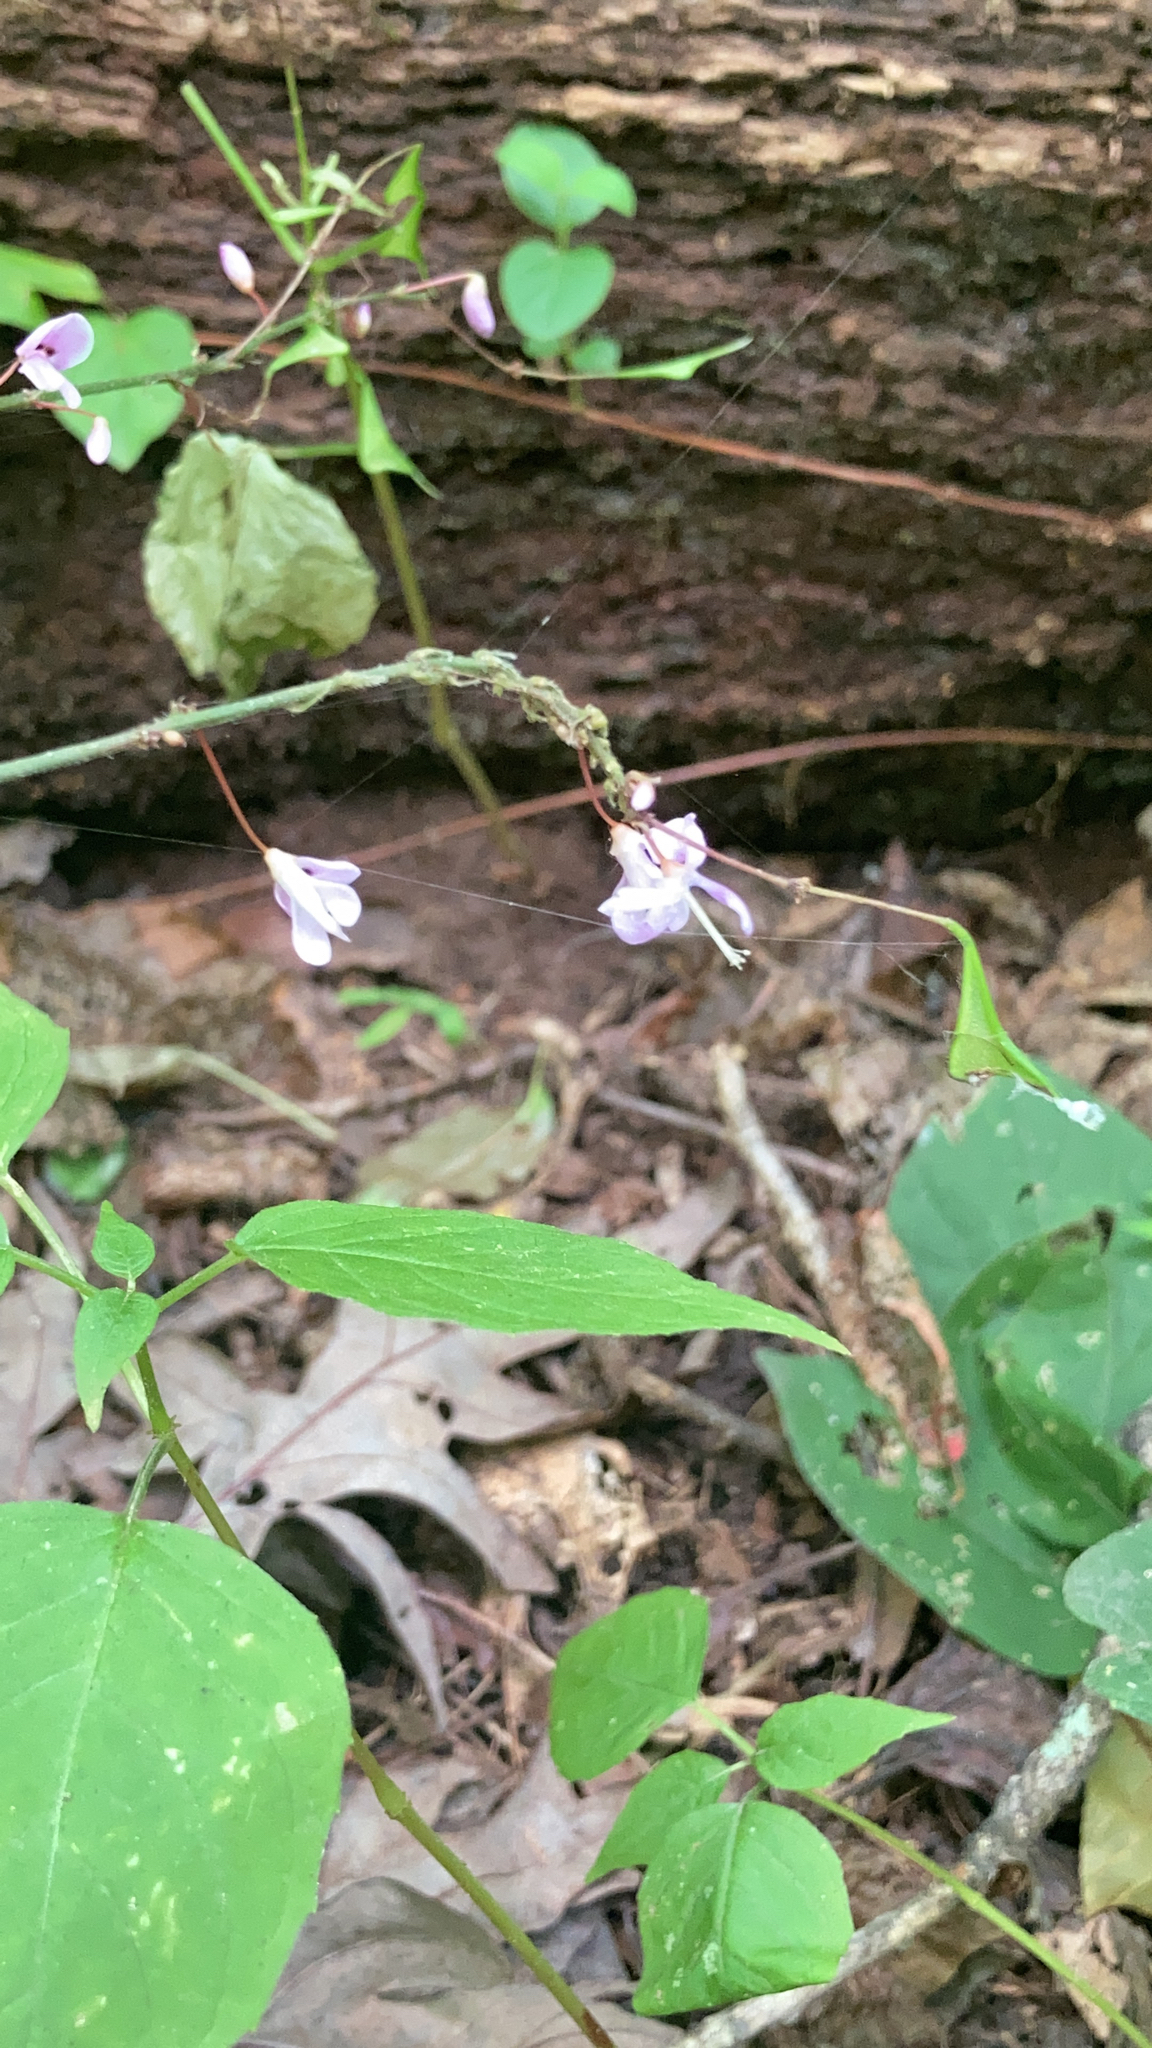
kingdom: Plantae
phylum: Tracheophyta
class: Magnoliopsida
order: Fabales
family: Fabaceae
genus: Hylodesmum
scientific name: Hylodesmum nudiflorum
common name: Bare-stemmed tick-trefoil
